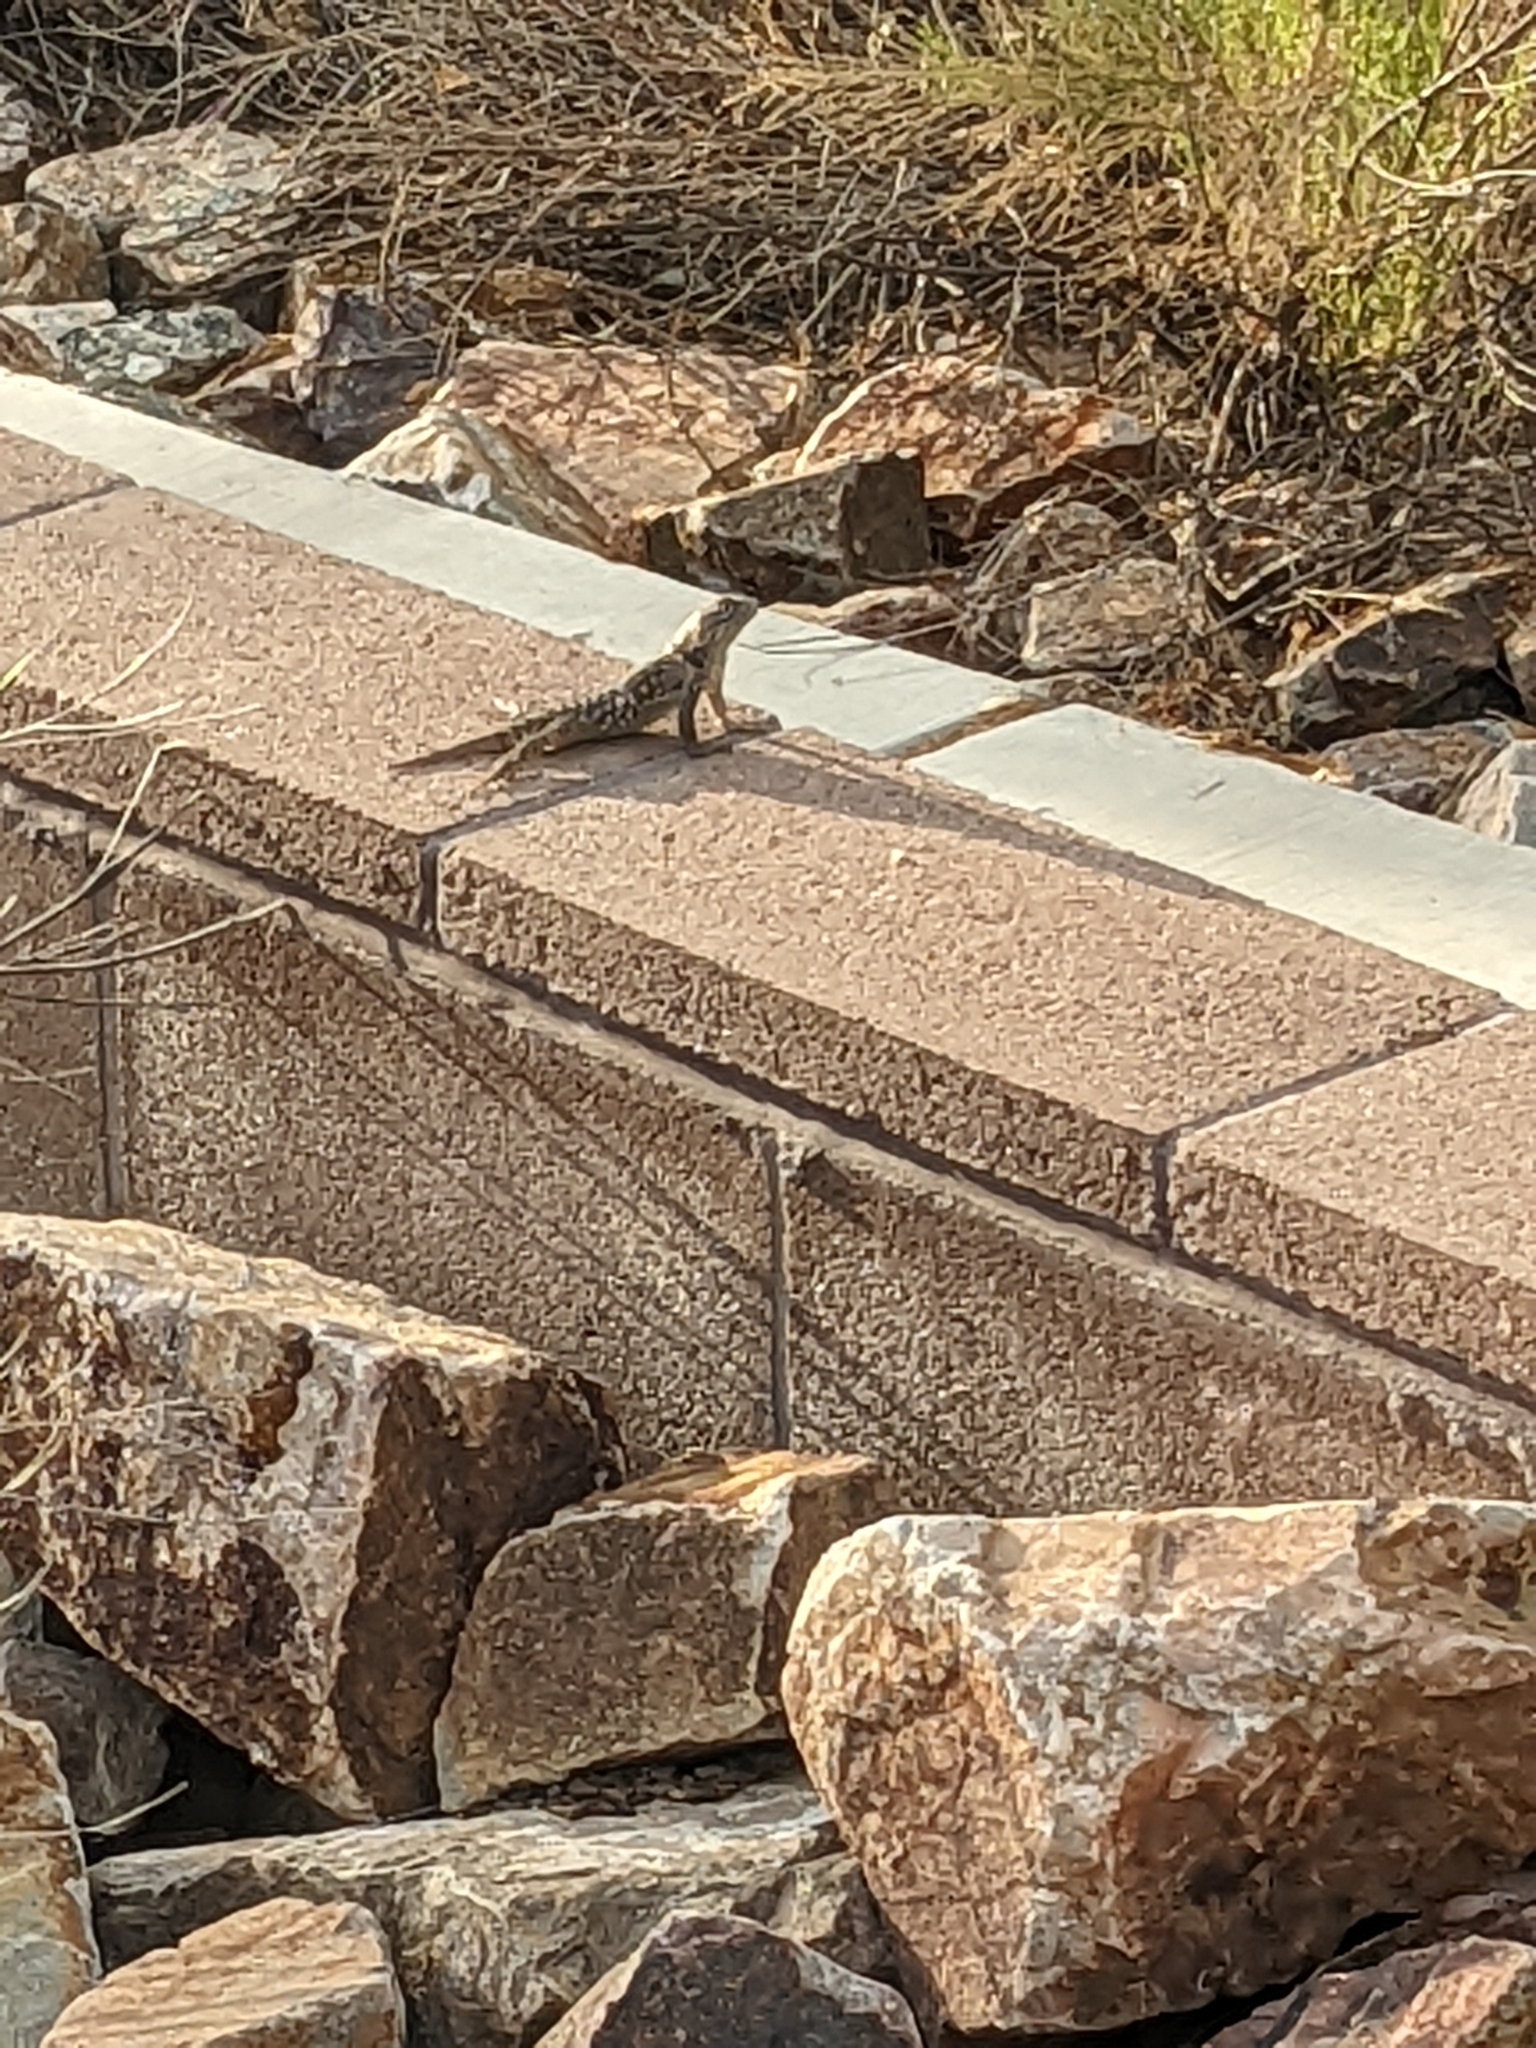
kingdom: Animalia
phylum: Chordata
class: Squamata
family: Phrynosomatidae
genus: Sceloporus
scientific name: Sceloporus magister
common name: Desert spiny lizard
